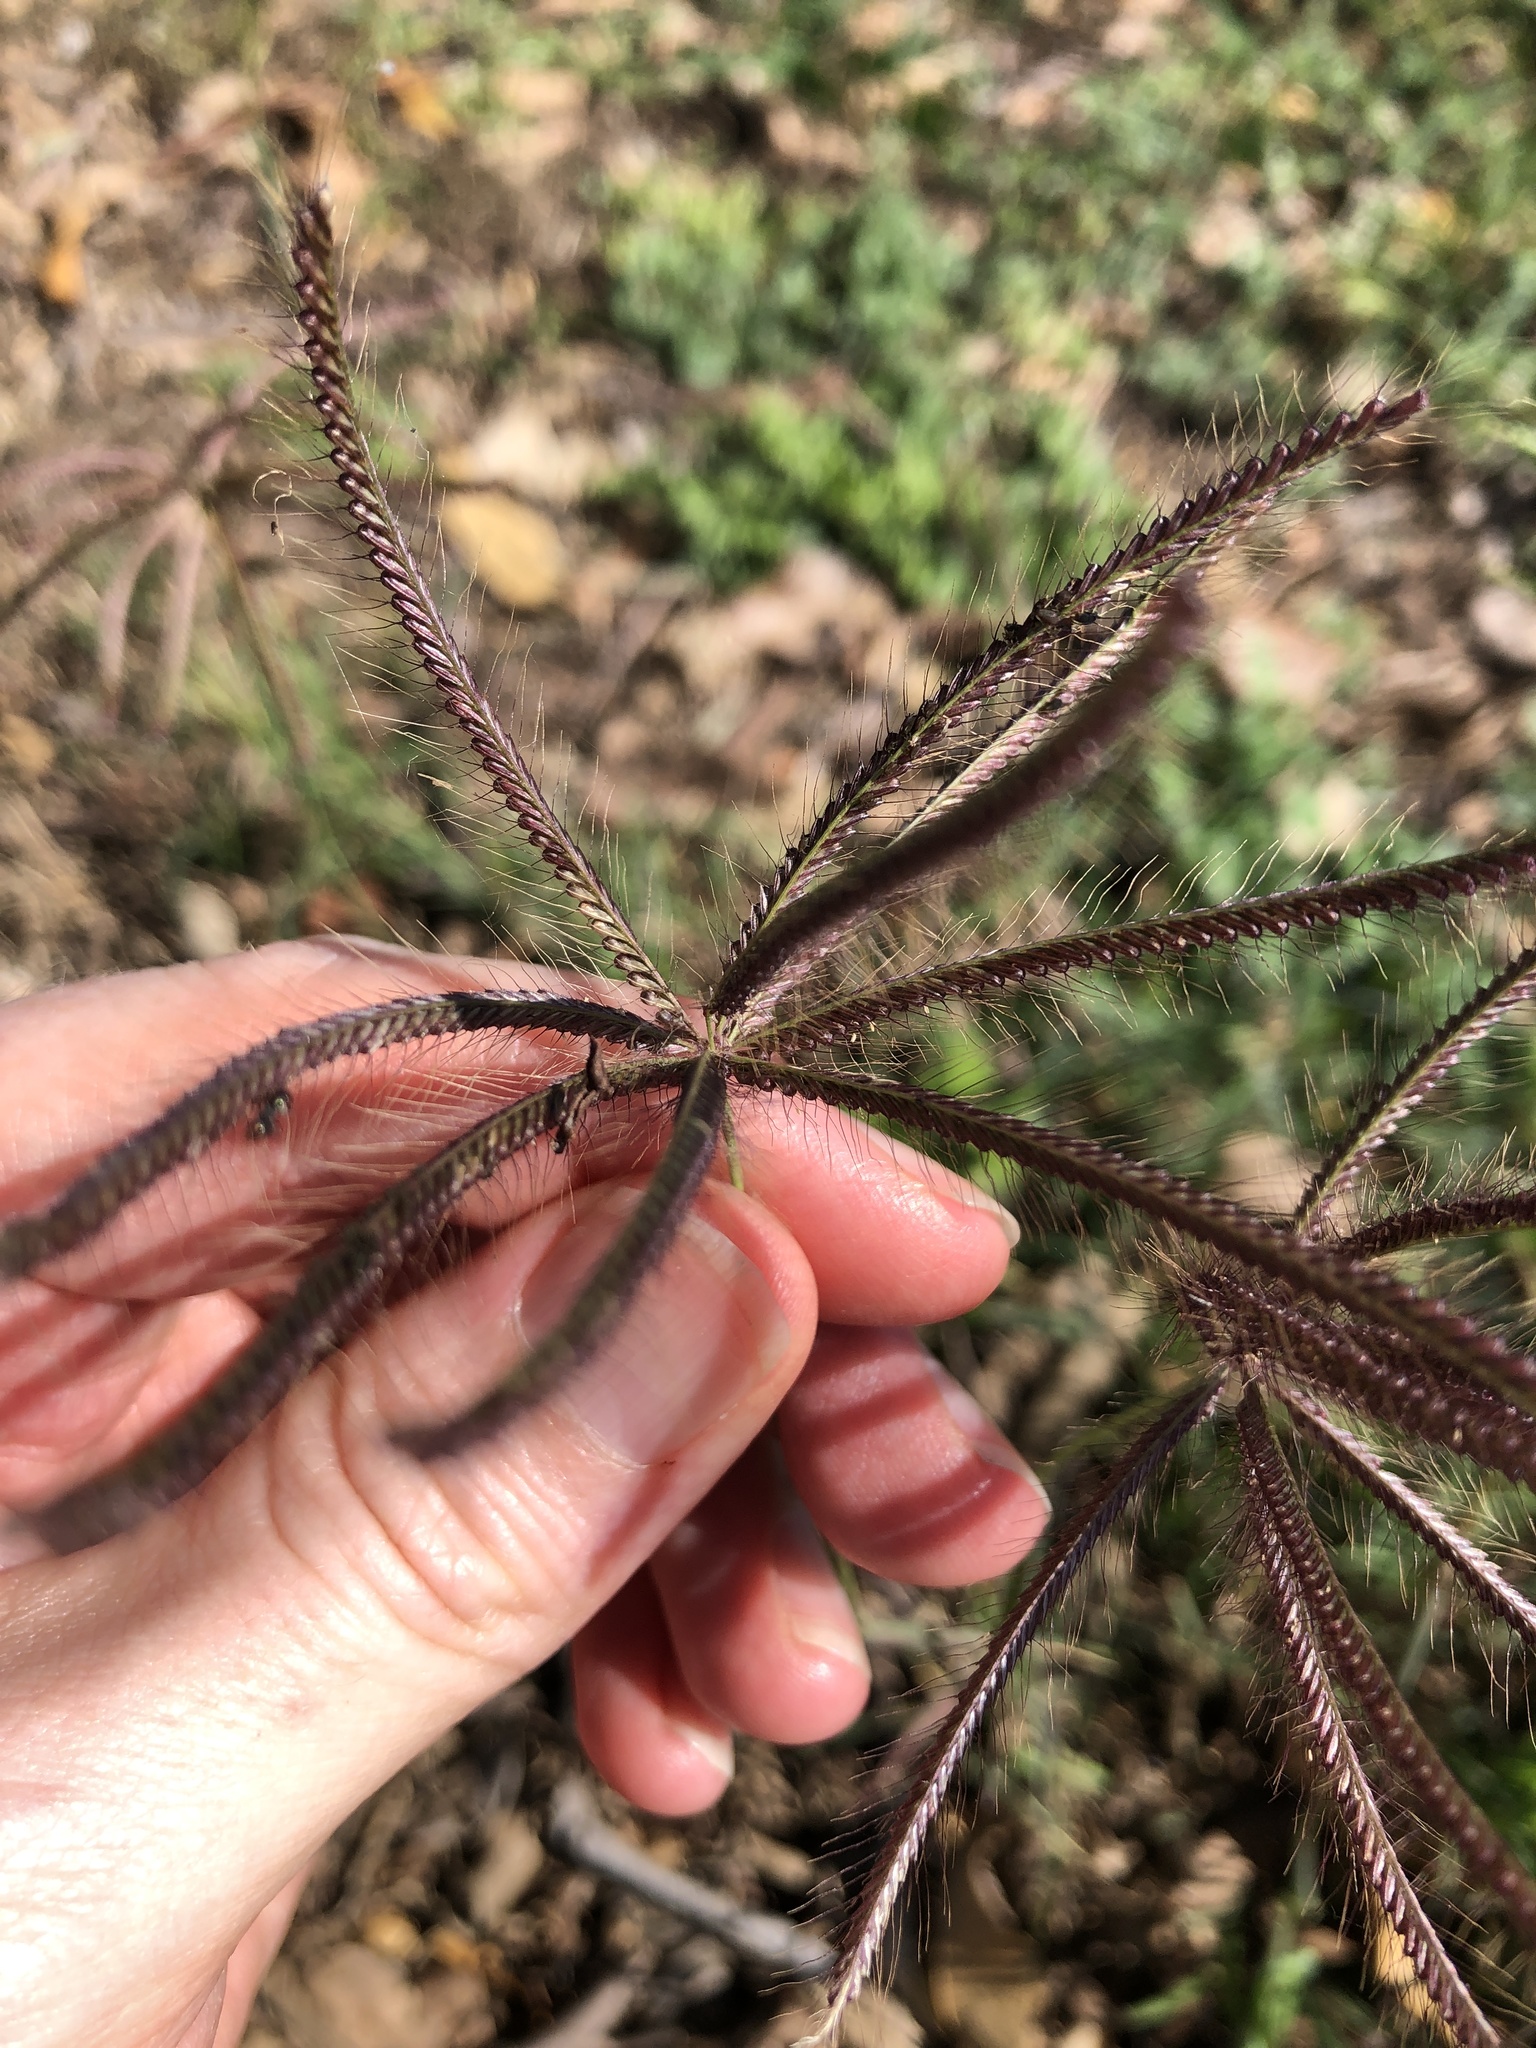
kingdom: Plantae
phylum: Tracheophyta
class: Liliopsida
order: Poales
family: Poaceae
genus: Chloris
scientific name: Chloris barbata
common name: Swollen fingergrass
